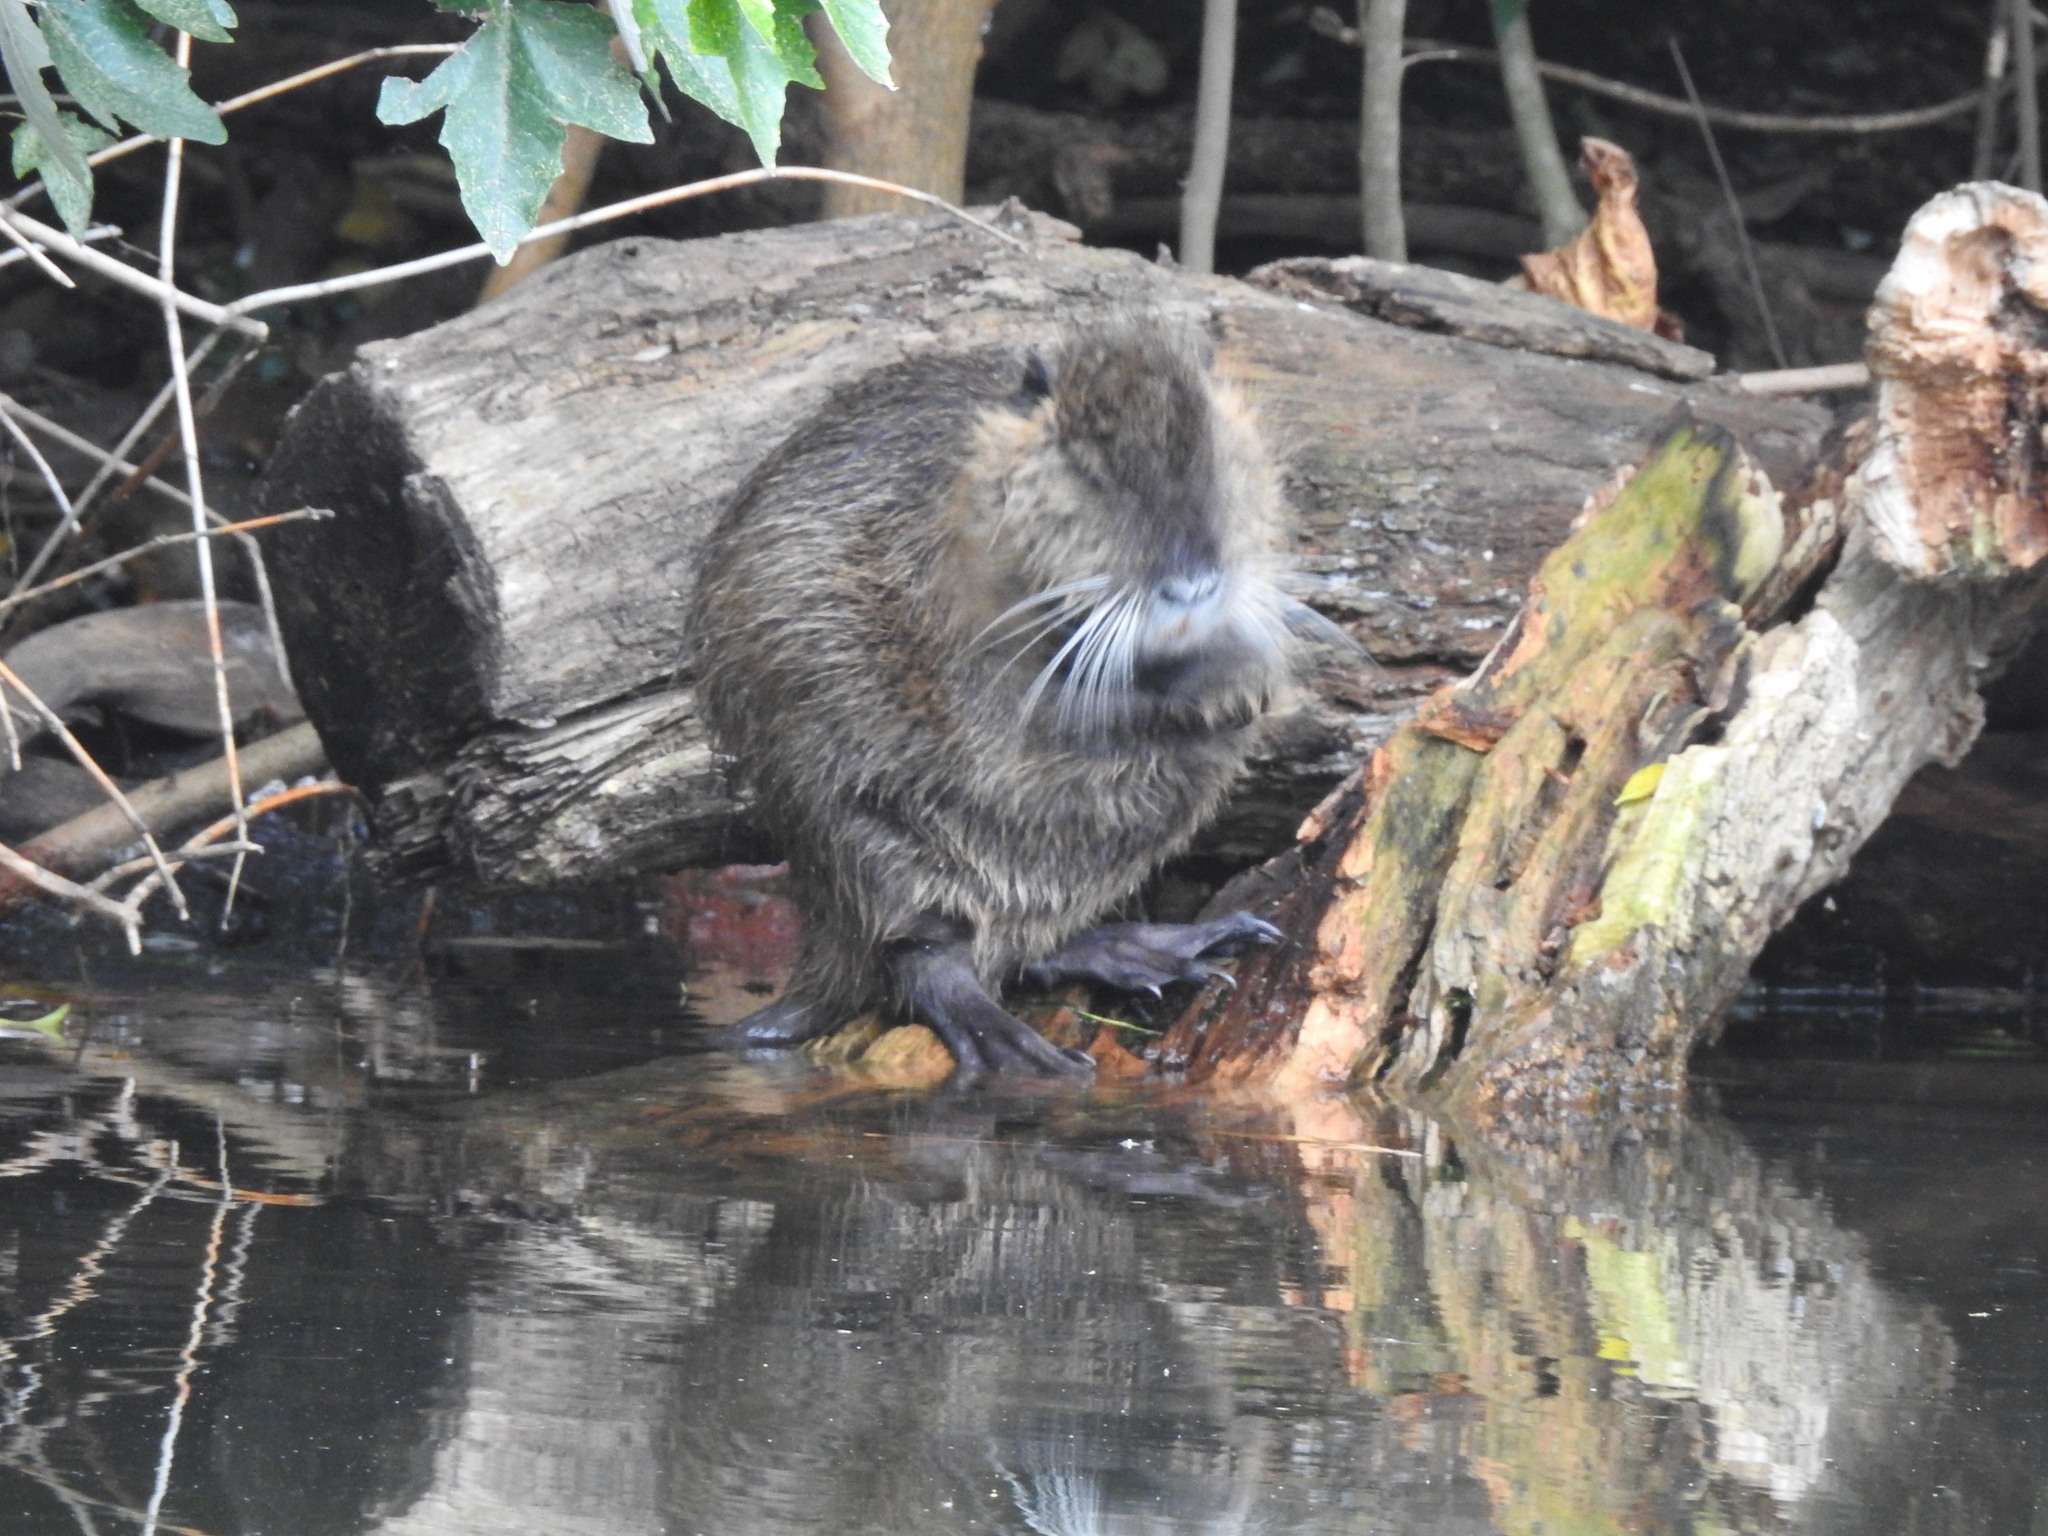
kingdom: Animalia
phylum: Chordata
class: Mammalia
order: Rodentia
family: Myocastoridae
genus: Myocastor
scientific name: Myocastor coypus
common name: Coypu
